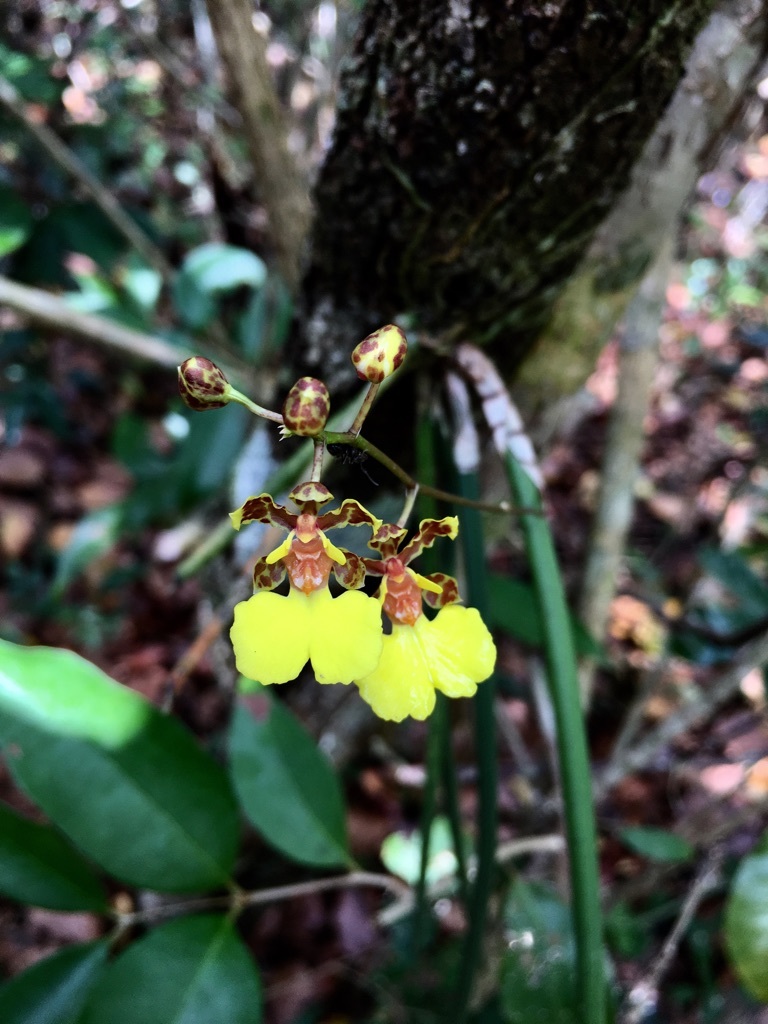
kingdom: Plantae
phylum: Tracheophyta
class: Liliopsida
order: Asparagales
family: Orchidaceae
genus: Trichocentrum
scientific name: Trichocentrum ascendens
